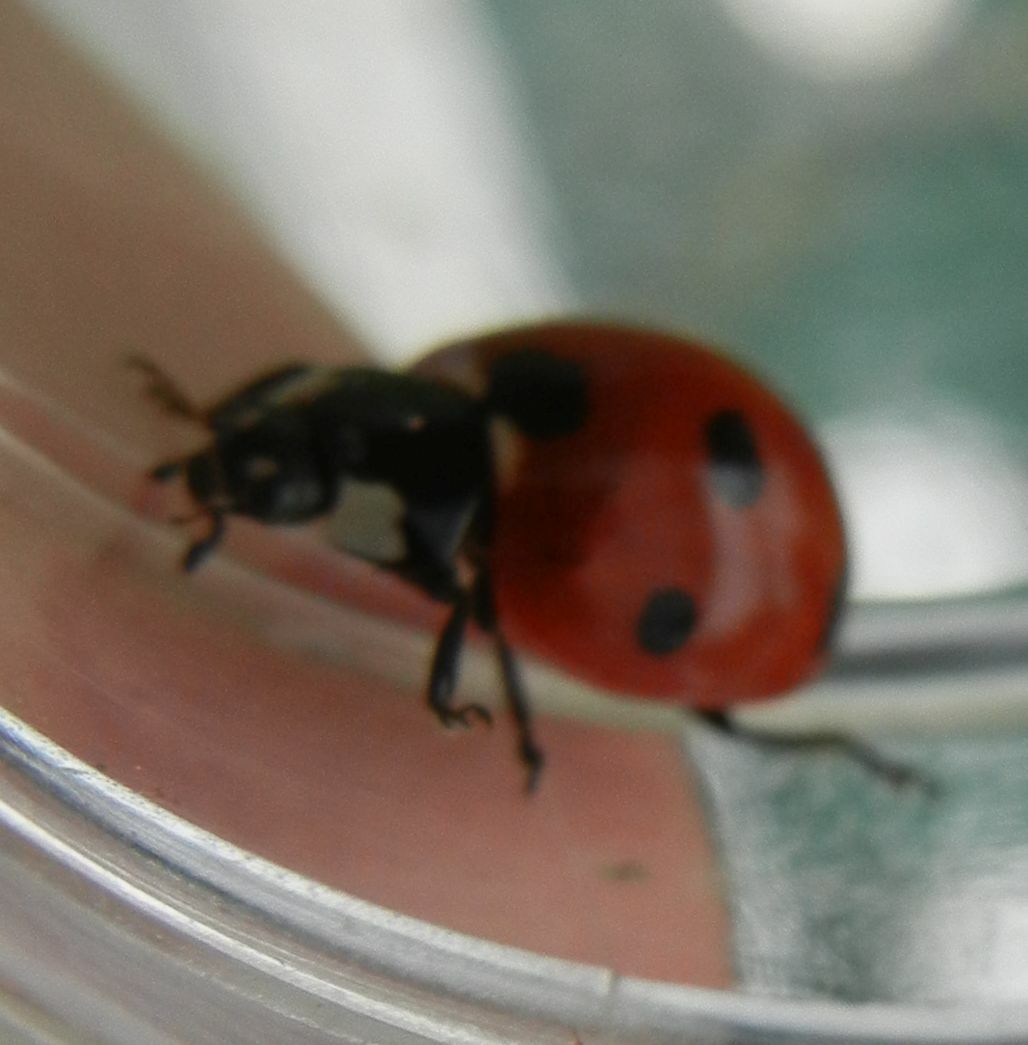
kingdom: Animalia
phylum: Arthropoda
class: Insecta
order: Coleoptera
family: Coccinellidae
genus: Coccinella
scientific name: Coccinella septempunctata
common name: Sevenspotted lady beetle
